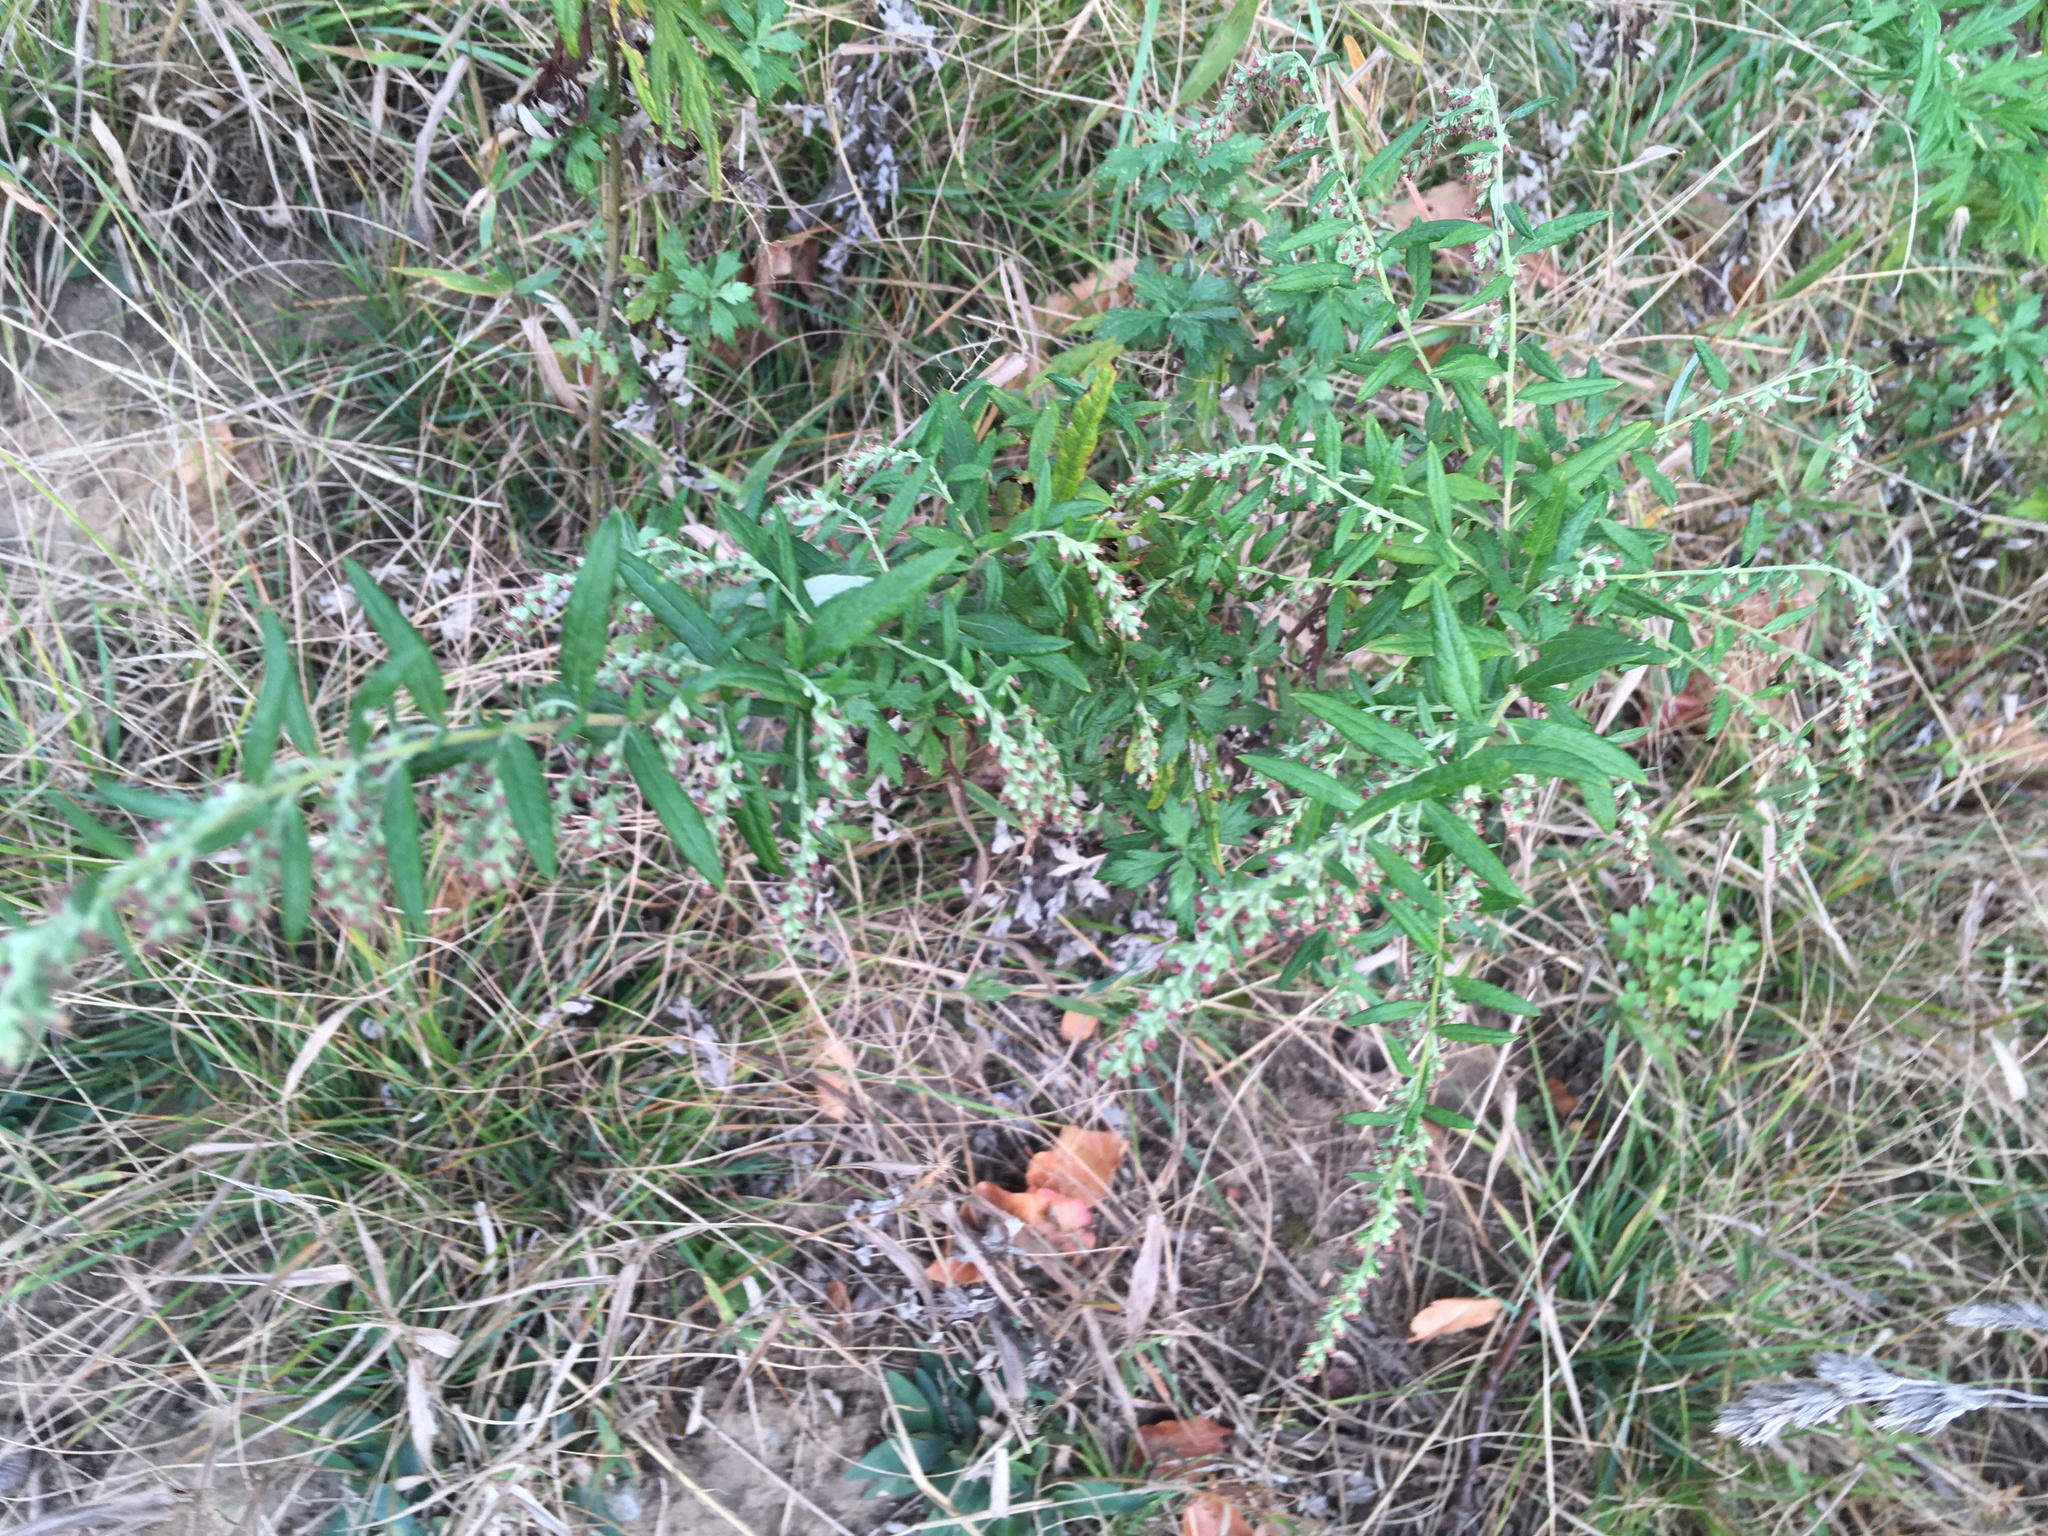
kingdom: Plantae
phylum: Tracheophyta
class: Magnoliopsida
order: Asterales
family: Asteraceae
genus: Artemisia
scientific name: Artemisia vulgaris
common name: Mugwort
